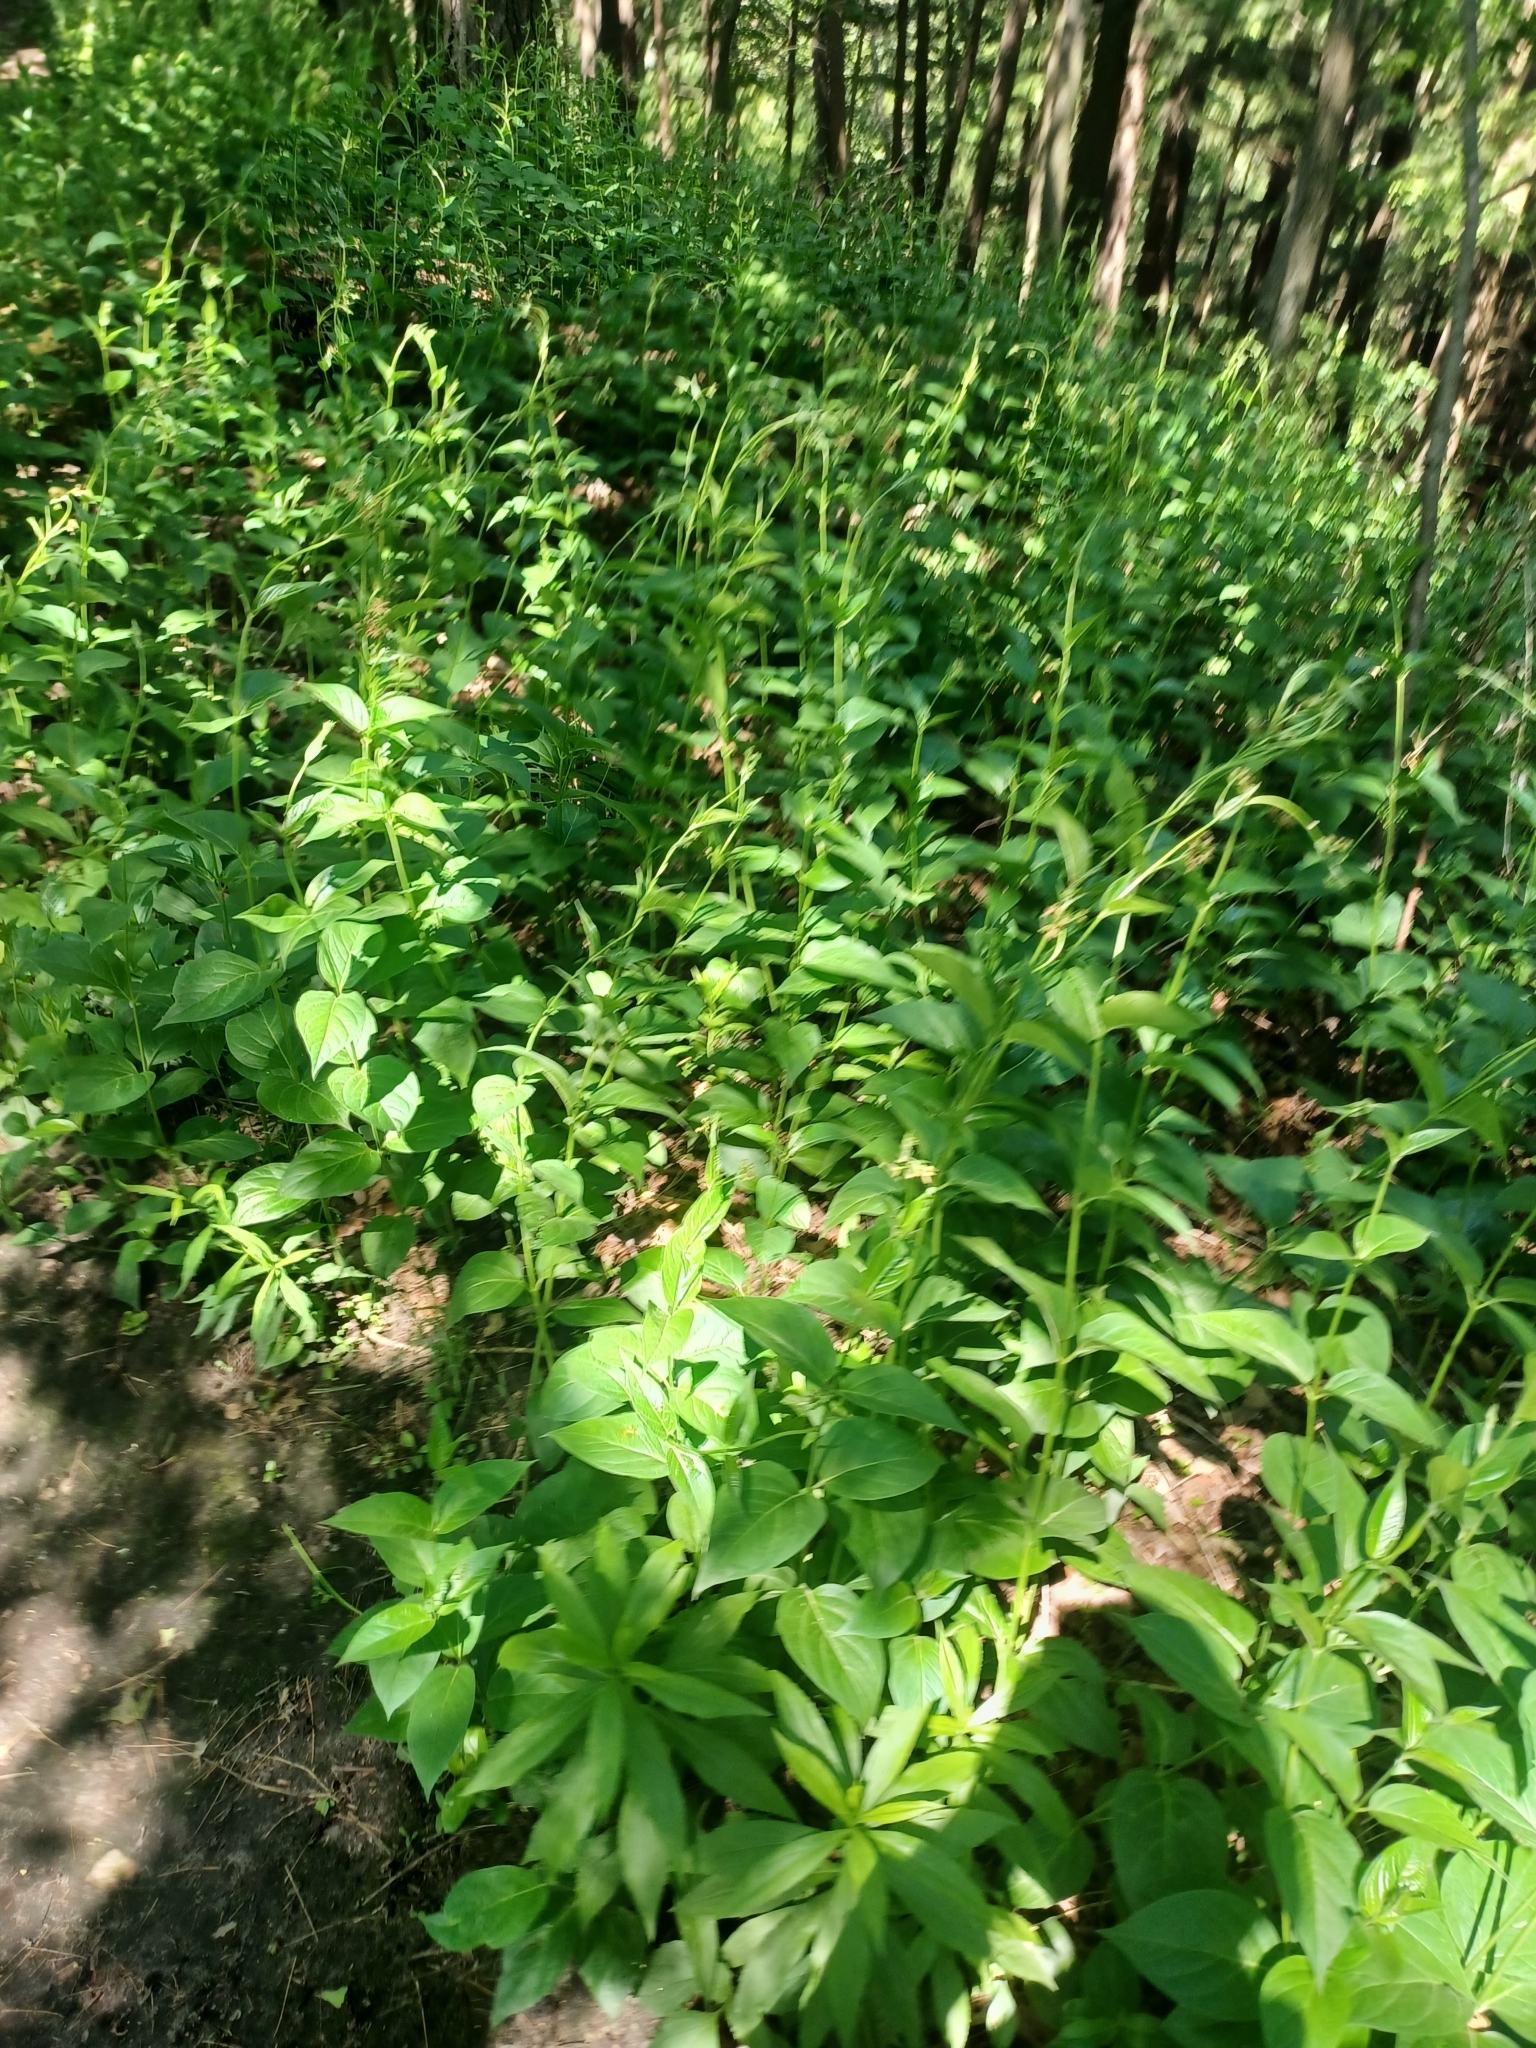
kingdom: Plantae
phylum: Tracheophyta
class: Magnoliopsida
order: Gentianales
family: Apocynaceae
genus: Vincetoxicum
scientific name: Vincetoxicum rossicum
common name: Dog-strangling vine
